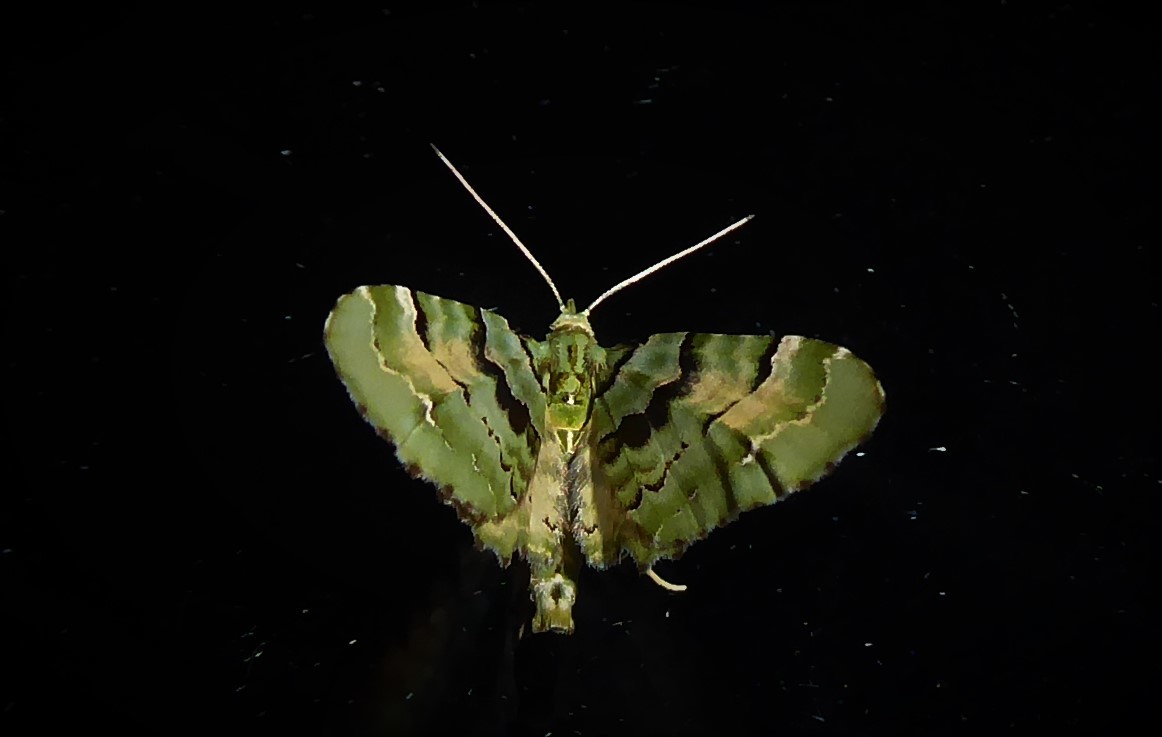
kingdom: Animalia
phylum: Arthropoda
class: Insecta
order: Lepidoptera
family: Geometridae
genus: Elvia
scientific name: Elvia glaucata
